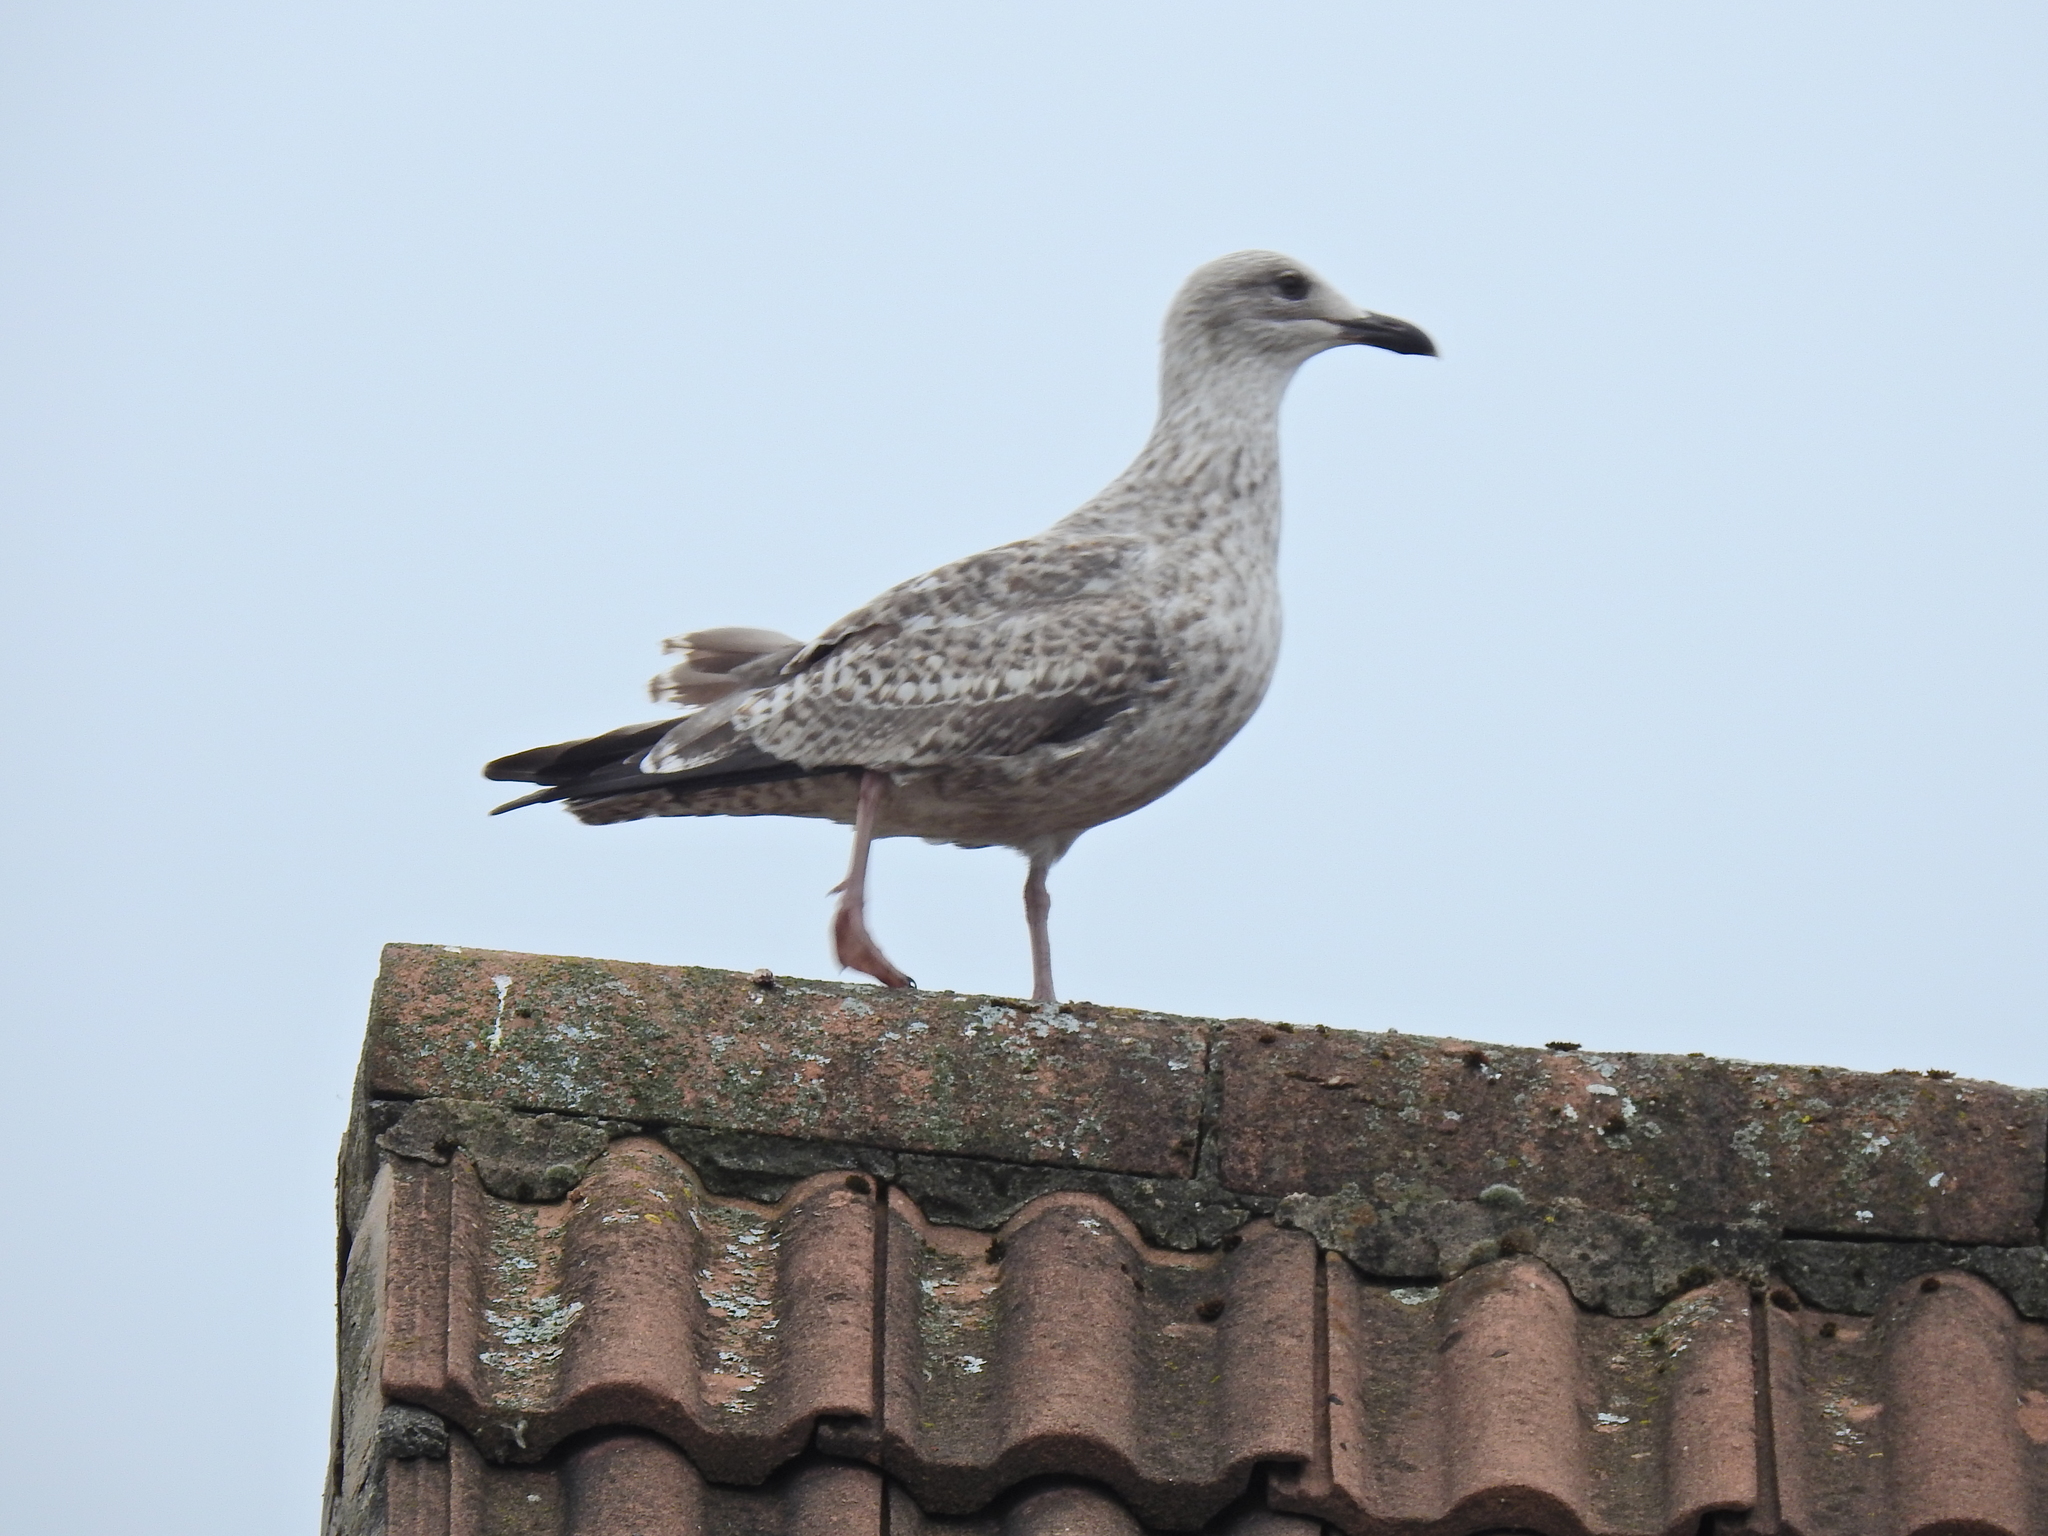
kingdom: Animalia
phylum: Chordata
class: Aves
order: Charadriiformes
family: Laridae
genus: Larus
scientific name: Larus argentatus
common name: Herring gull
